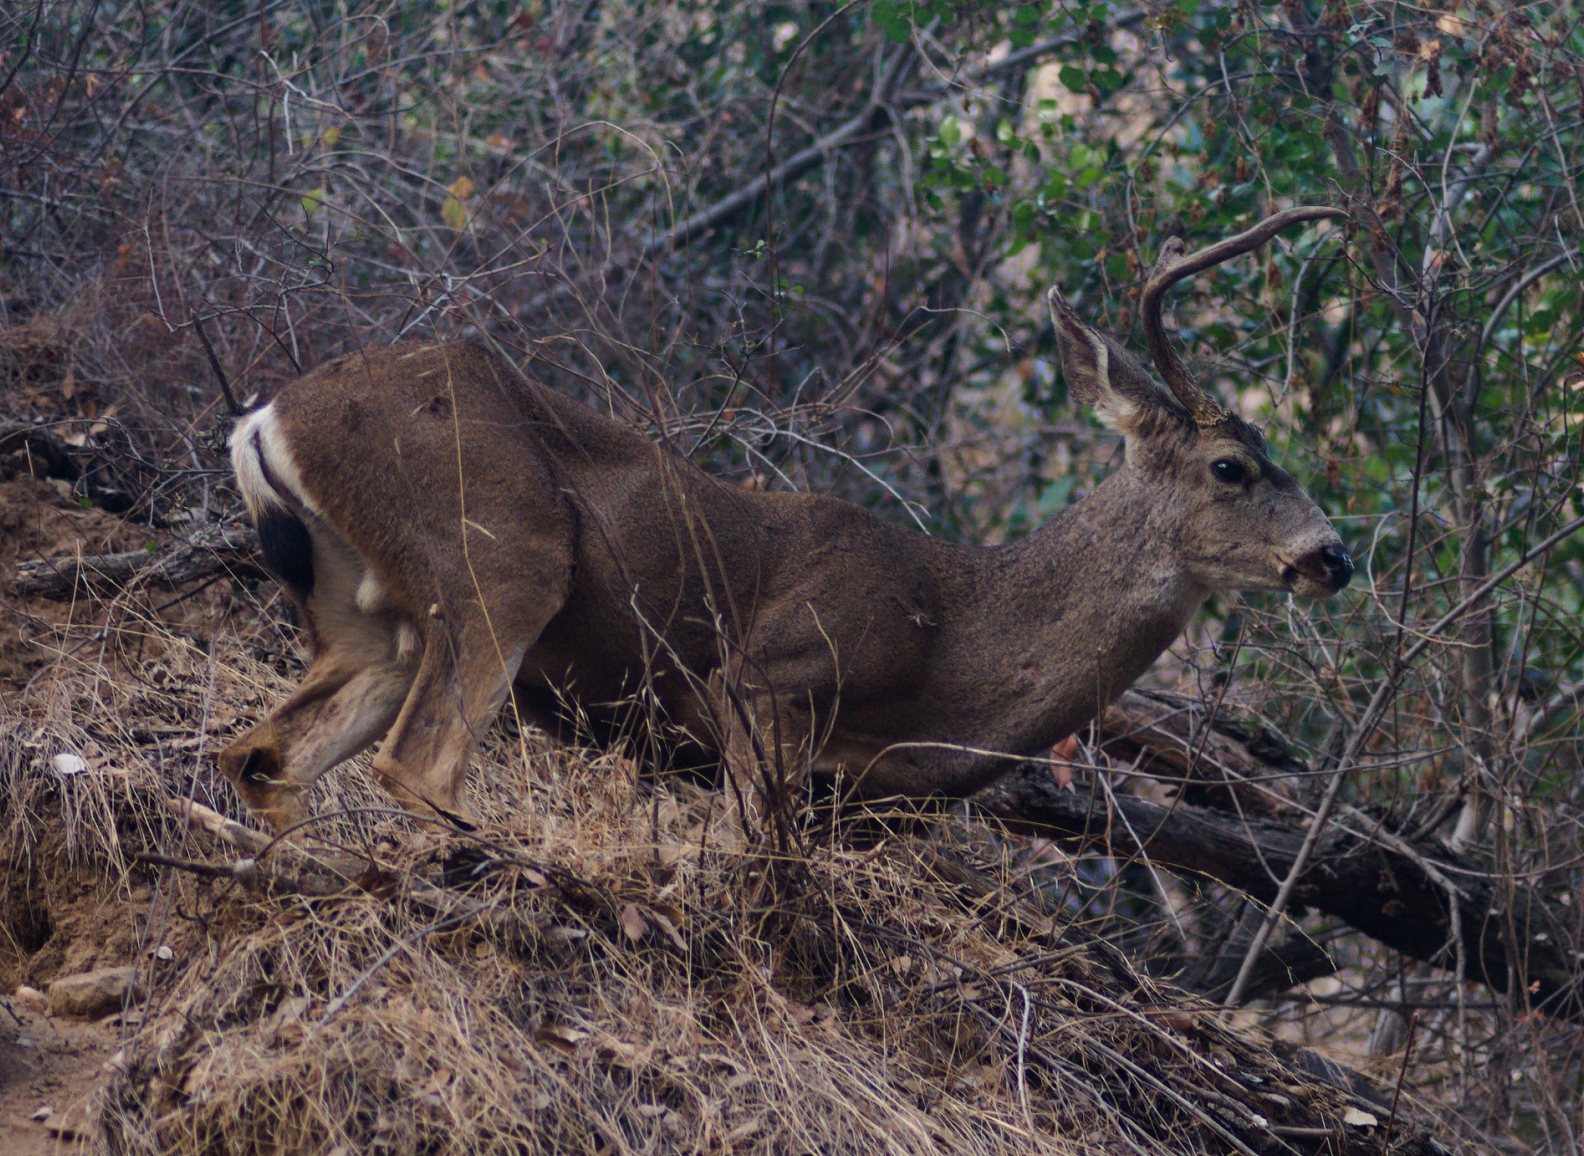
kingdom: Animalia
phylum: Chordata
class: Mammalia
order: Artiodactyla
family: Cervidae
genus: Odocoileus
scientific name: Odocoileus hemionus
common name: Mule deer
